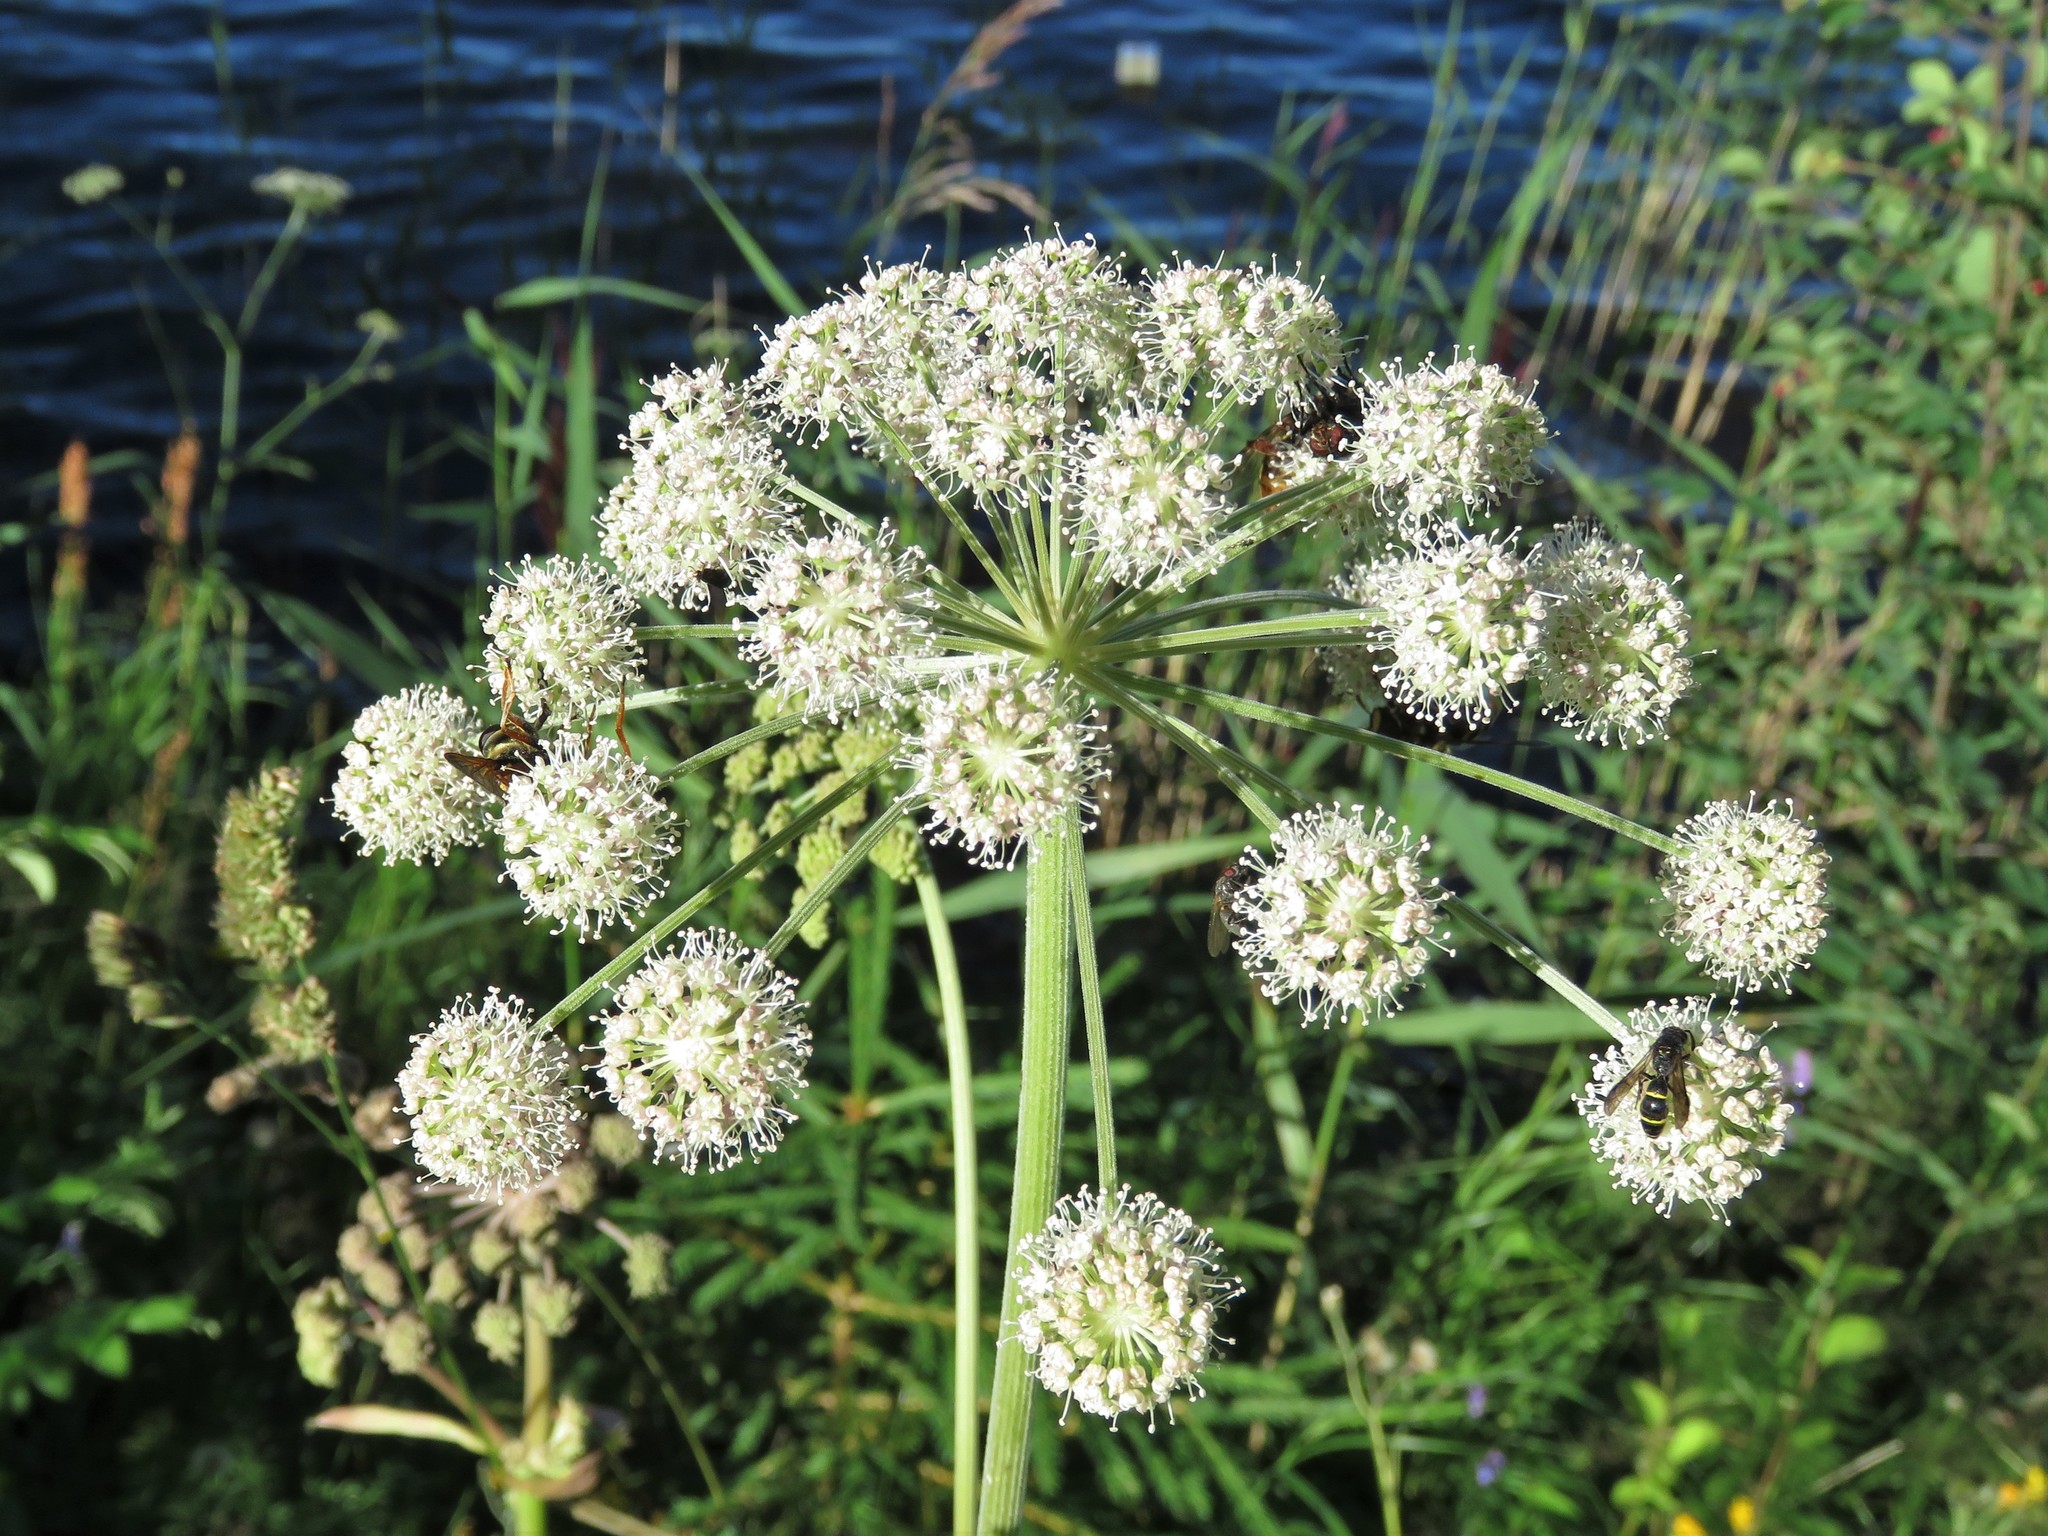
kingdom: Plantae
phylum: Tracheophyta
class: Magnoliopsida
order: Apiales
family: Apiaceae
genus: Angelica
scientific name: Angelica sylvestris
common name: Wild angelica
